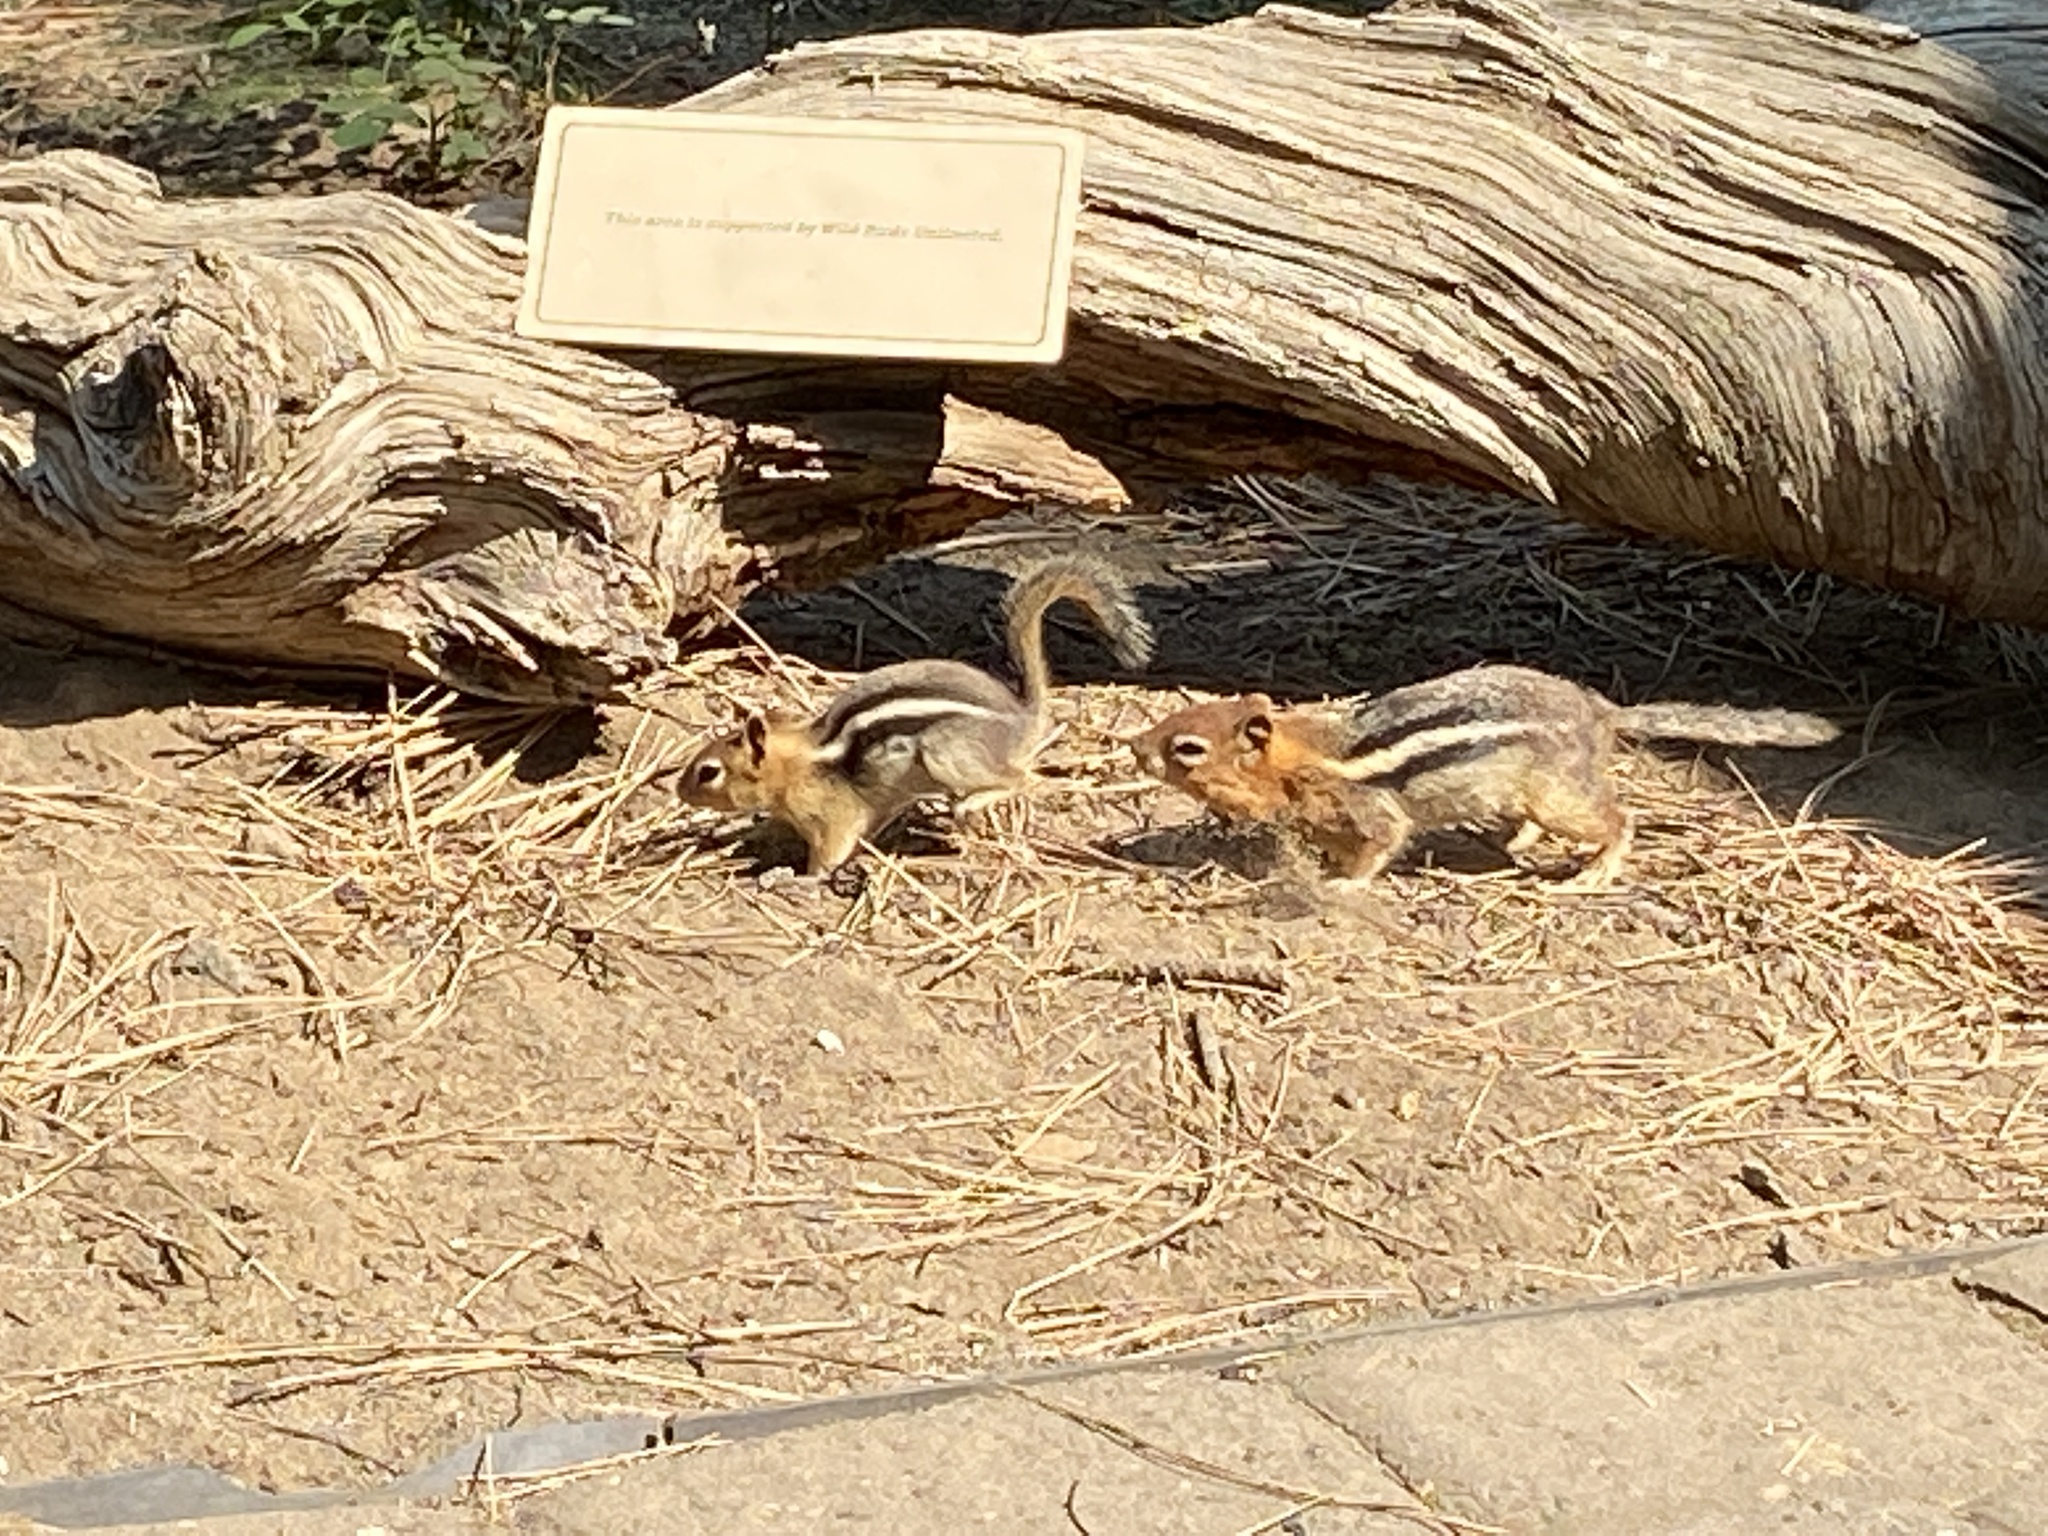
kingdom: Animalia
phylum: Chordata
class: Mammalia
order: Rodentia
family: Sciuridae
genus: Callospermophilus
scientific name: Callospermophilus lateralis
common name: Golden-mantled ground squirrel
